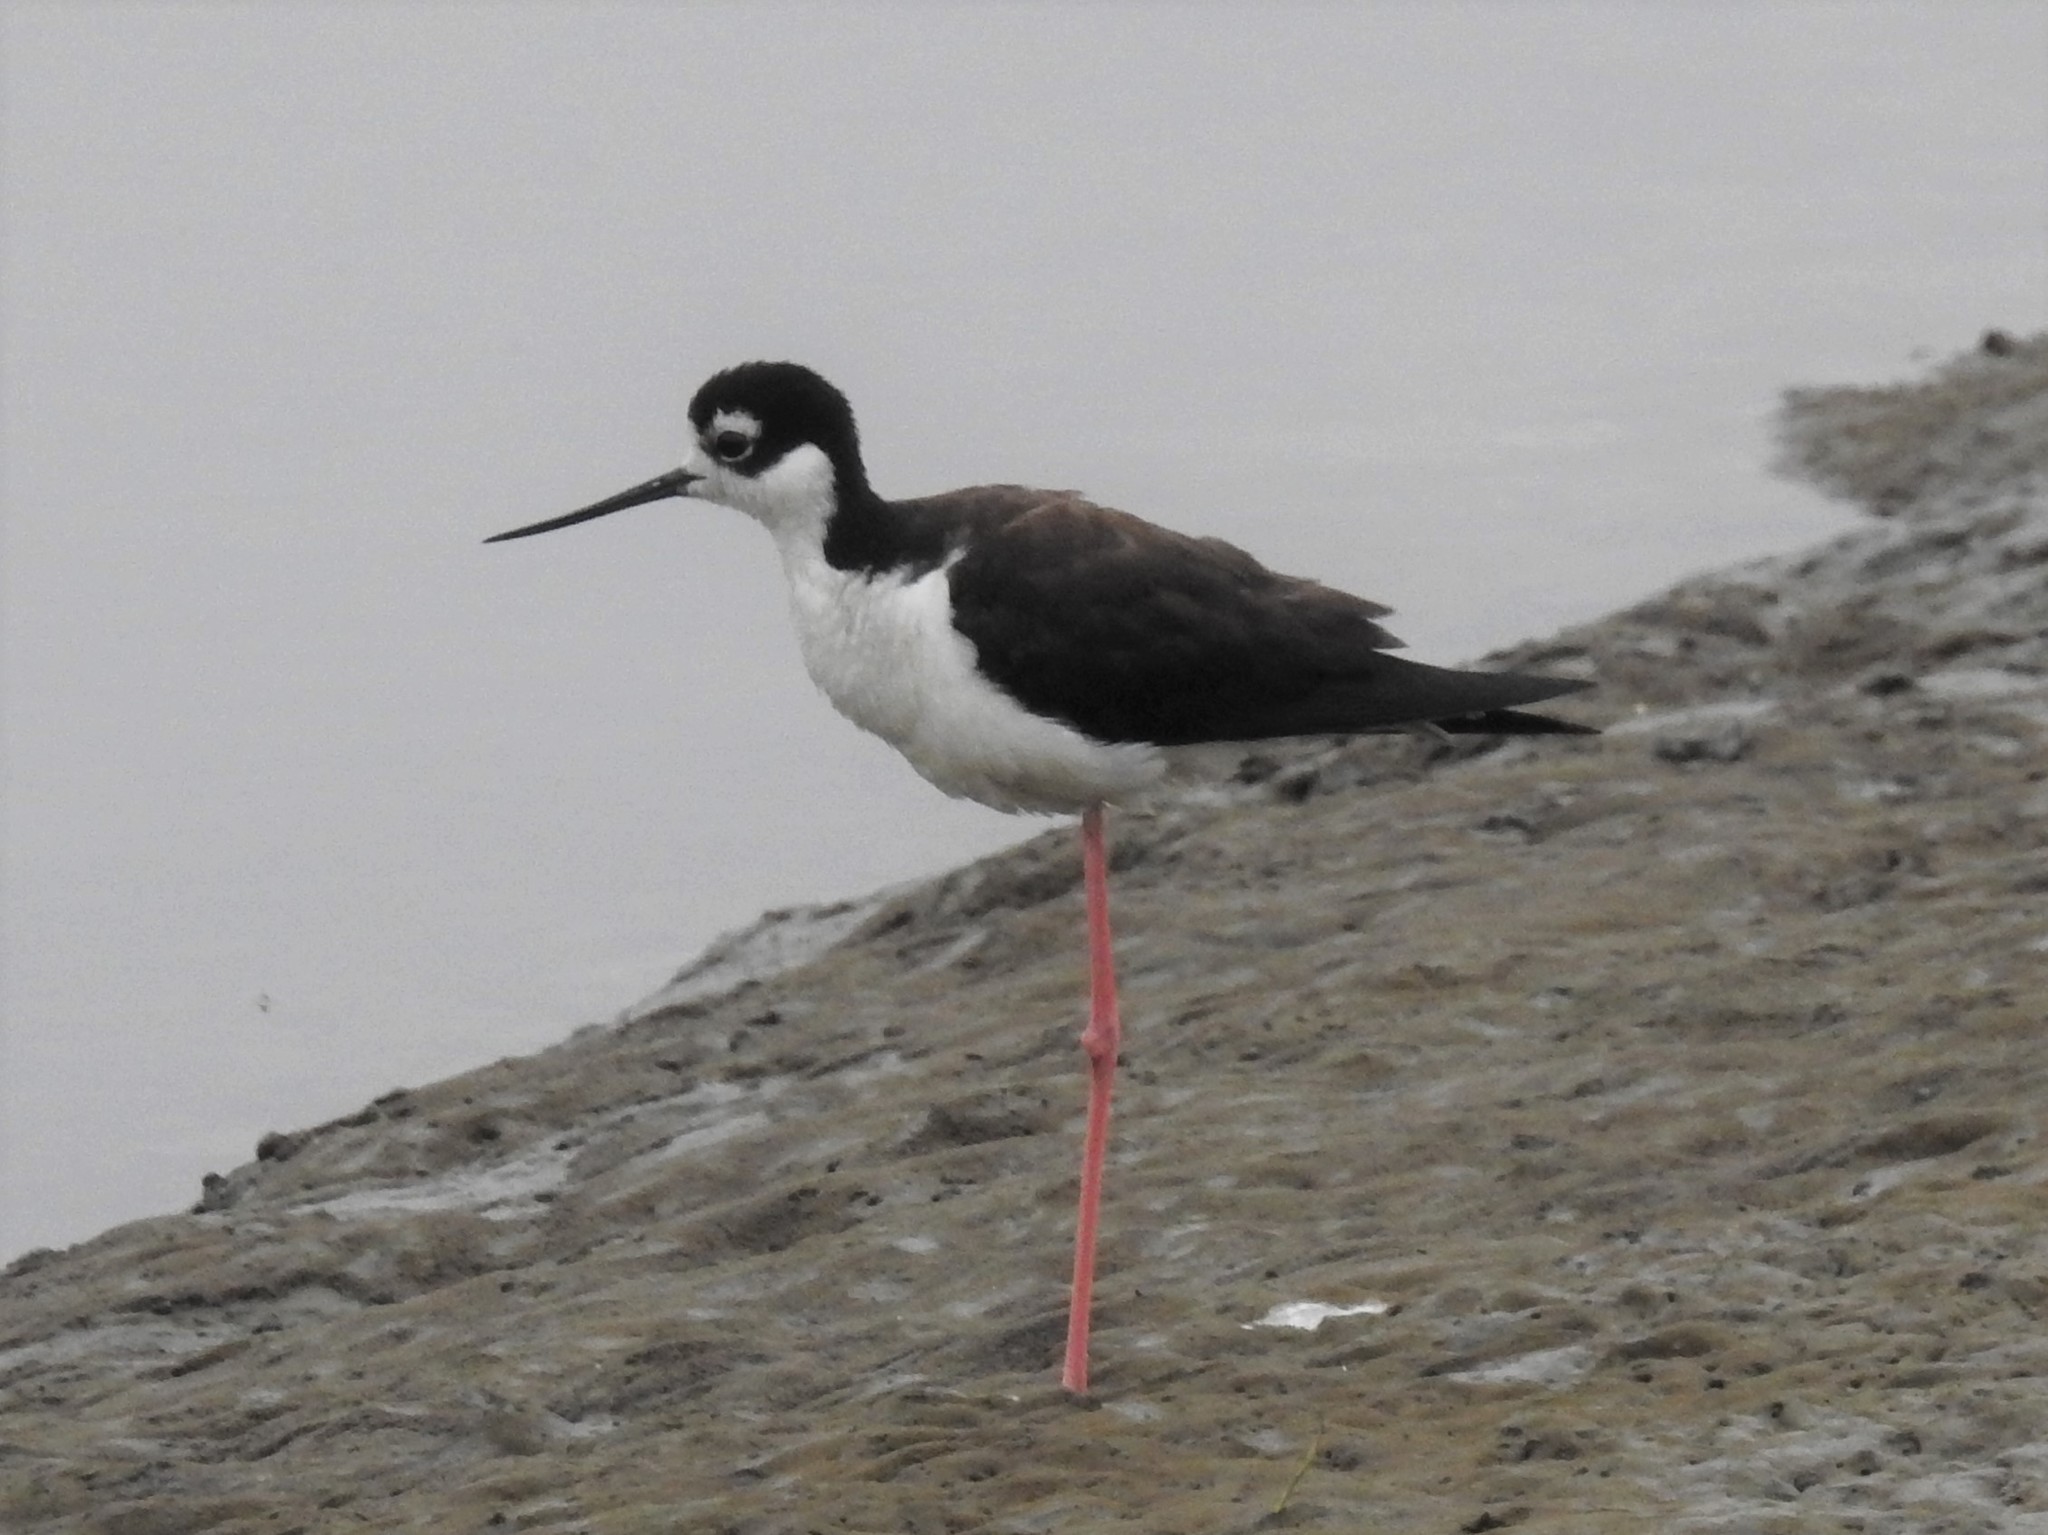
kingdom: Animalia
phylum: Chordata
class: Aves
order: Charadriiformes
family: Recurvirostridae
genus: Himantopus
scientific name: Himantopus mexicanus
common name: Black-necked stilt
